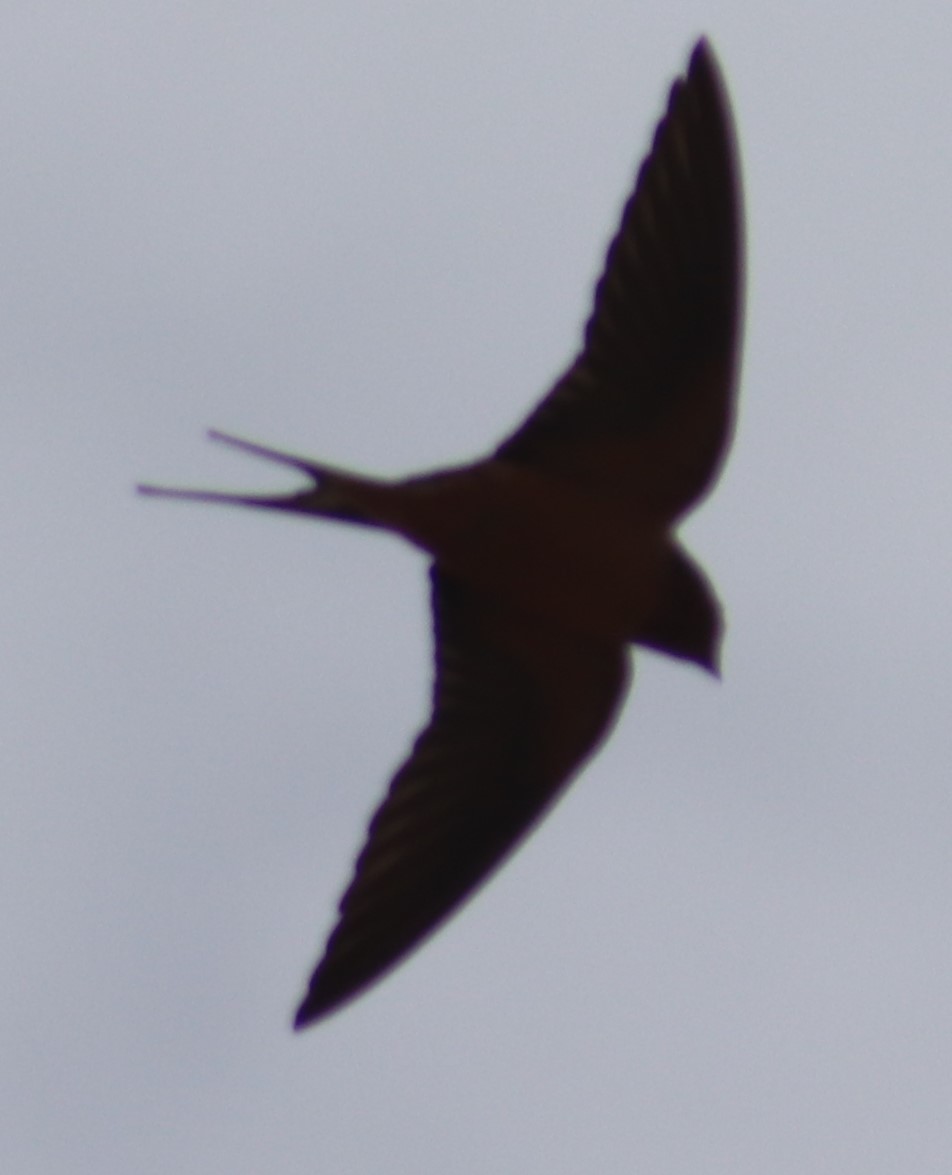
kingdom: Animalia
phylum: Chordata
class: Aves
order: Passeriformes
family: Hirundinidae
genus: Hirundo
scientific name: Hirundo rustica
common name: Barn swallow
